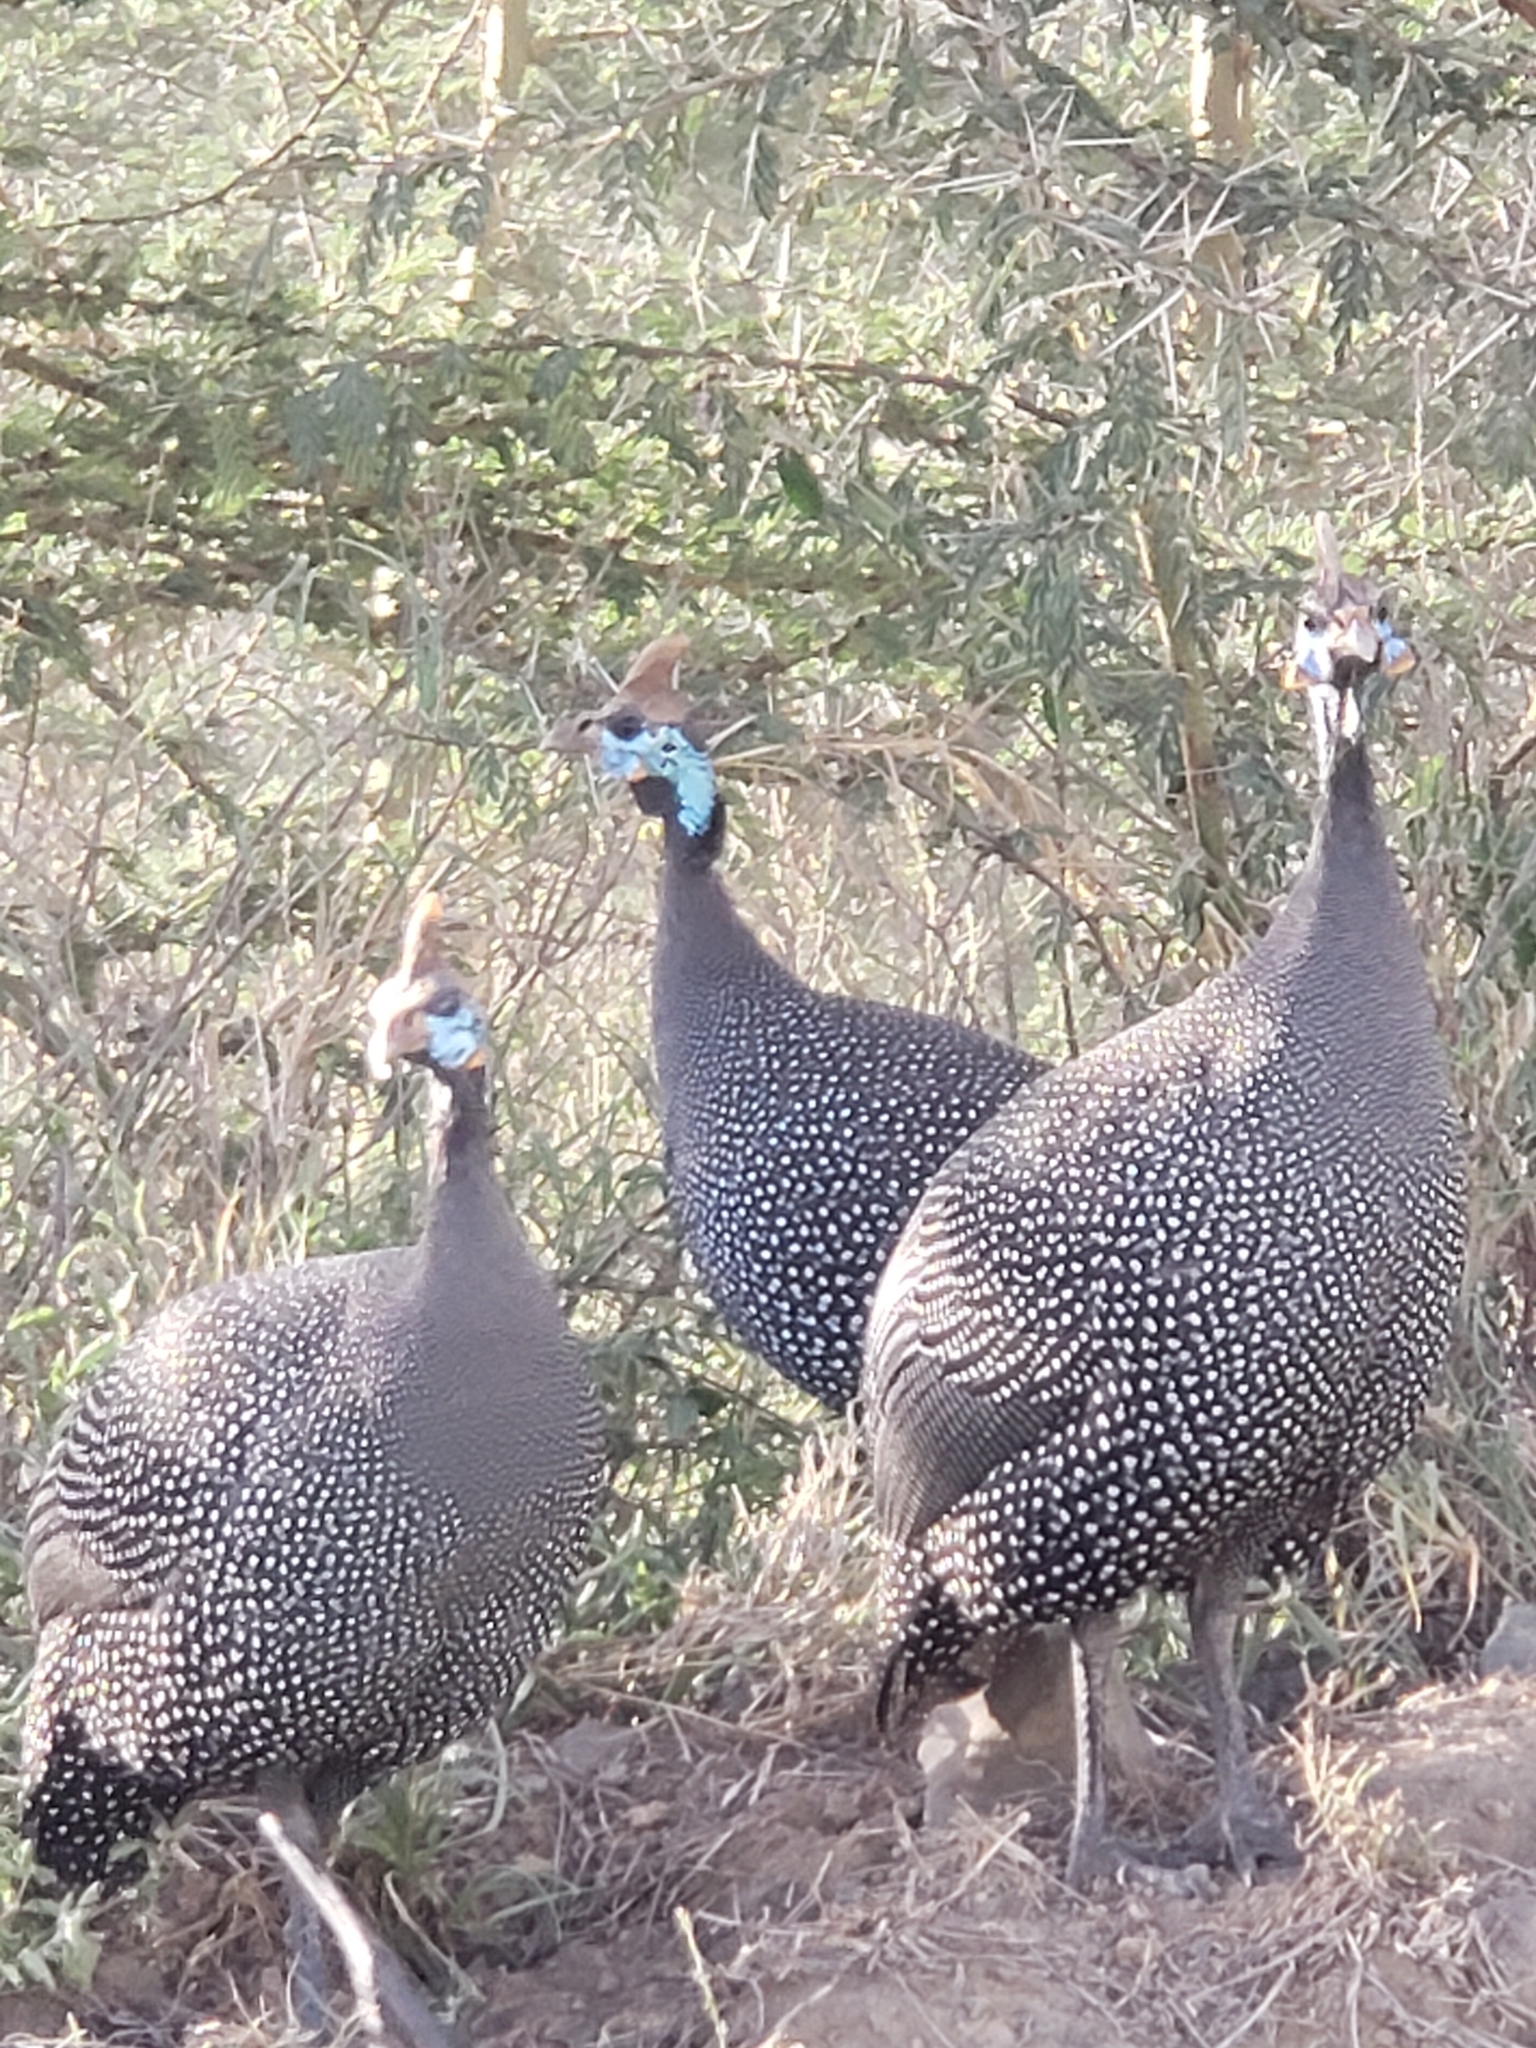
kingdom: Animalia
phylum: Chordata
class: Aves
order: Galliformes
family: Numididae
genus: Numida
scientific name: Numida meleagris
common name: Helmeted guineafowl
